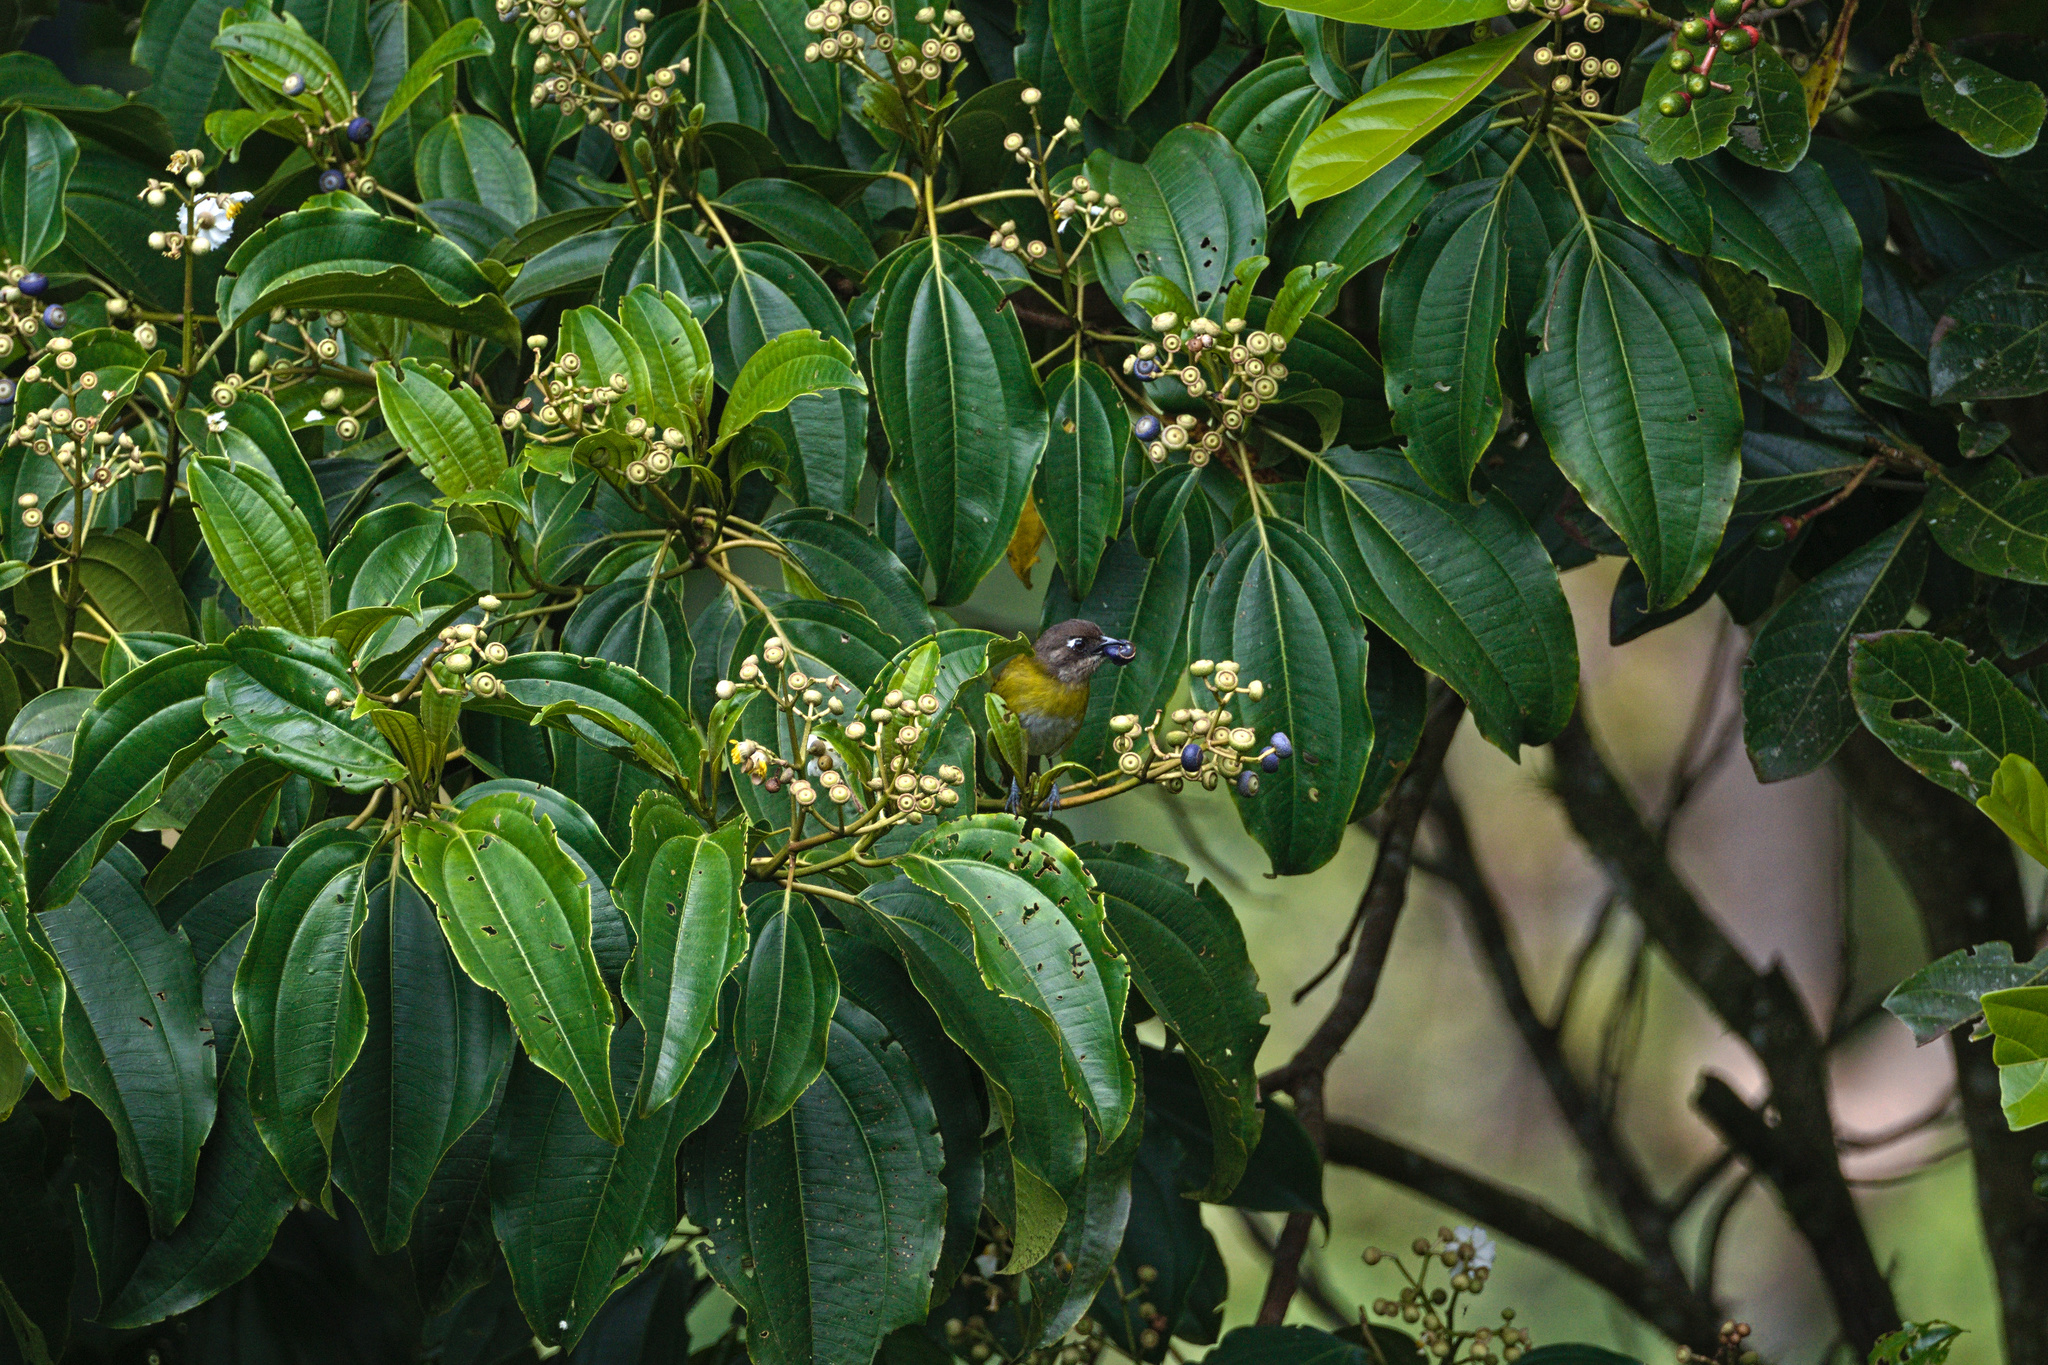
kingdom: Animalia
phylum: Chordata
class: Aves
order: Passeriformes
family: Passerellidae
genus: Chlorospingus
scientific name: Chlorospingus flavopectus
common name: Common chlorospingus
